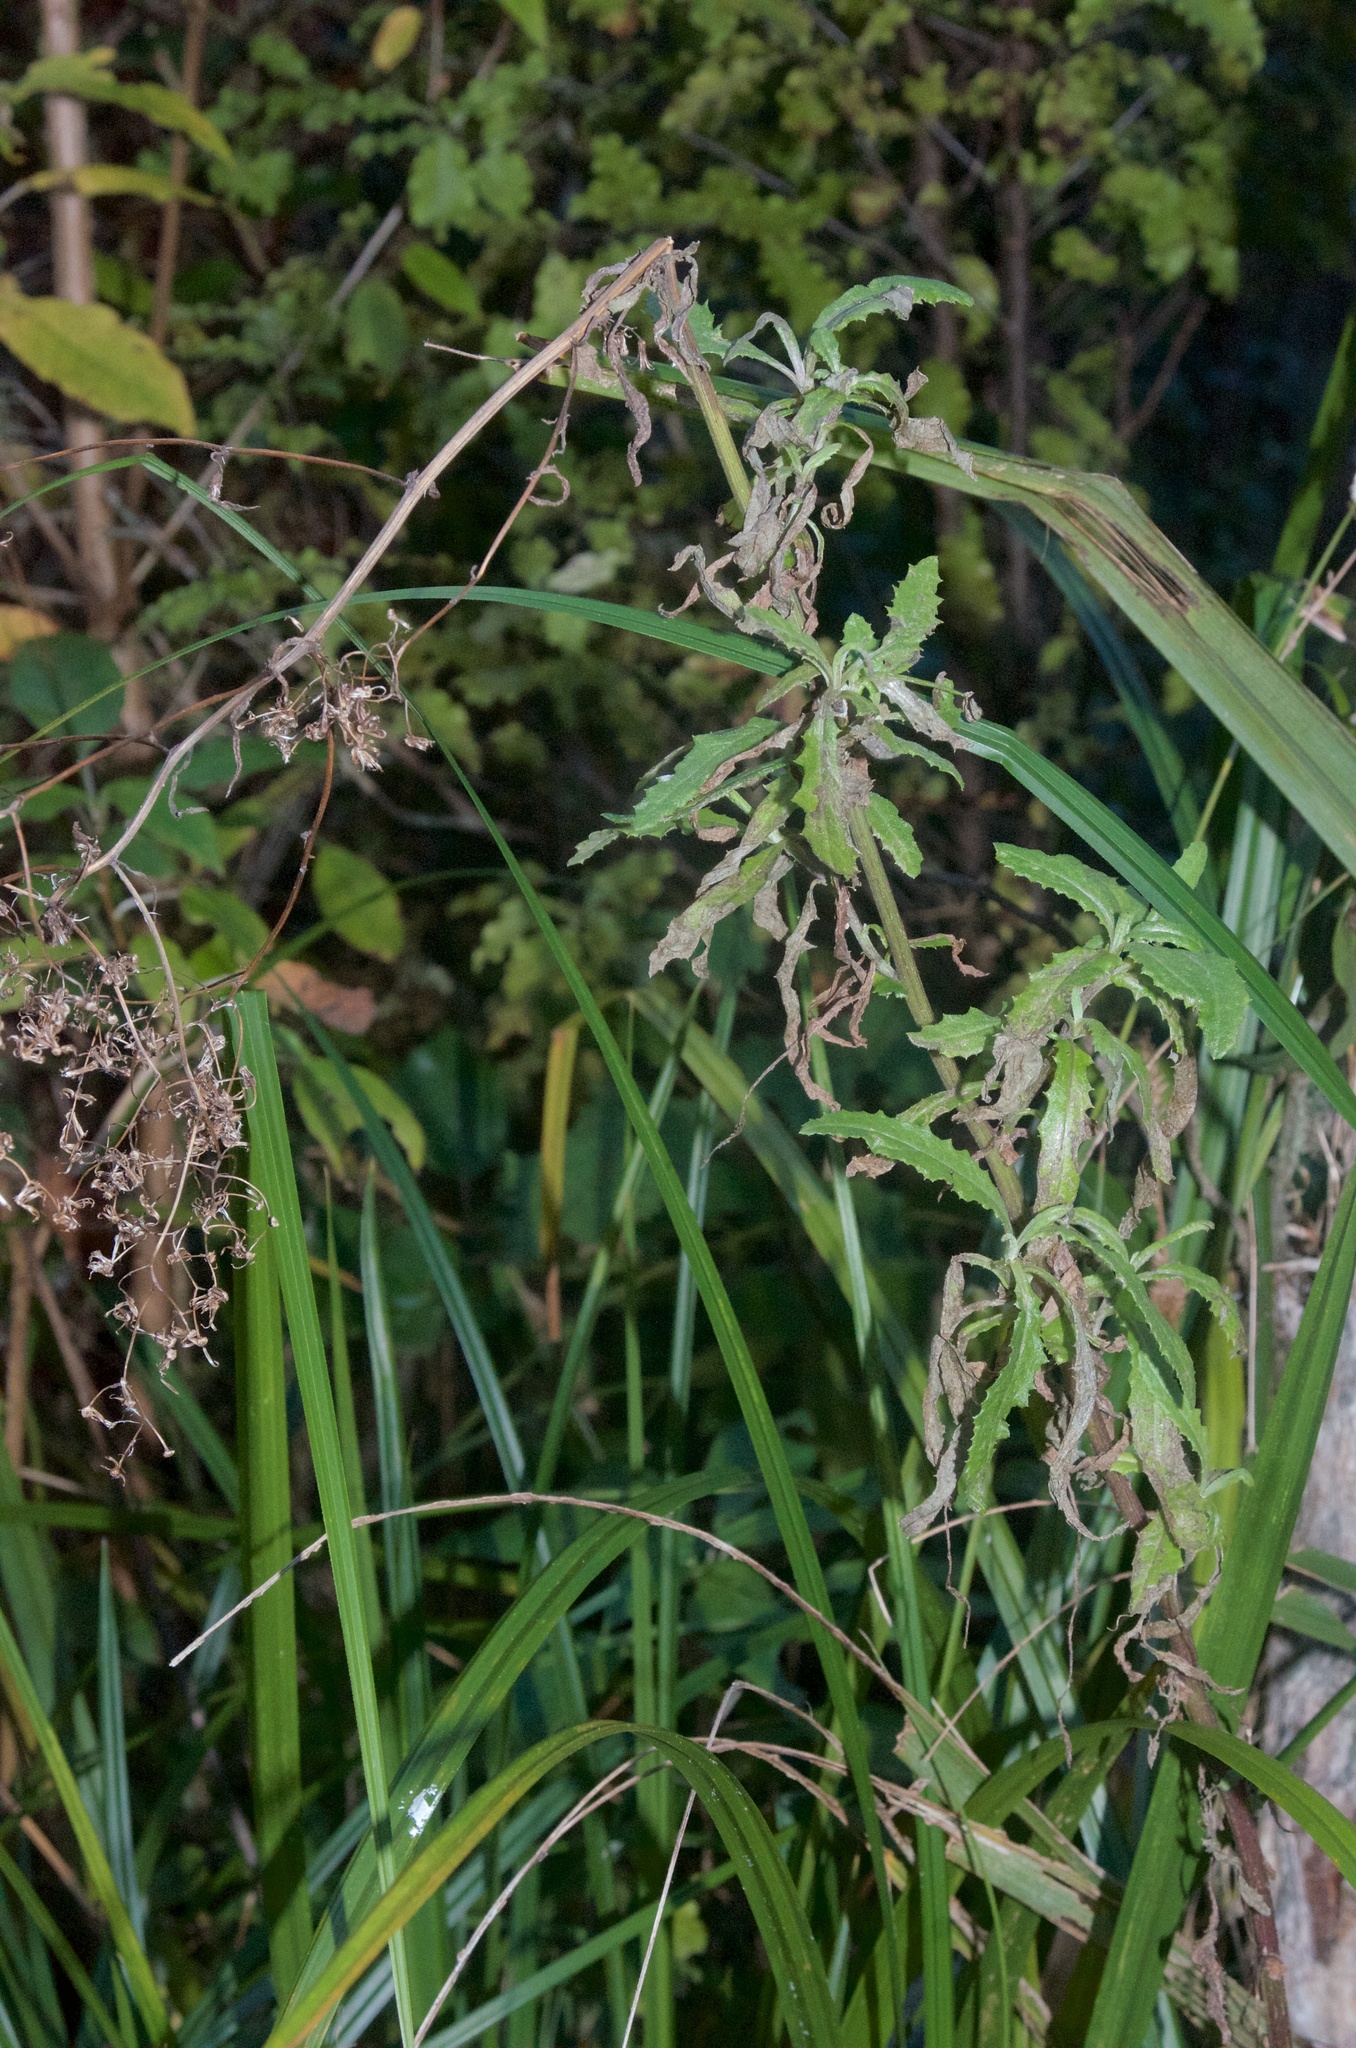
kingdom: Plantae
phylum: Tracheophyta
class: Magnoliopsida
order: Asterales
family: Asteraceae
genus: Senecio
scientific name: Senecio minimus
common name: Toothed fireweed
